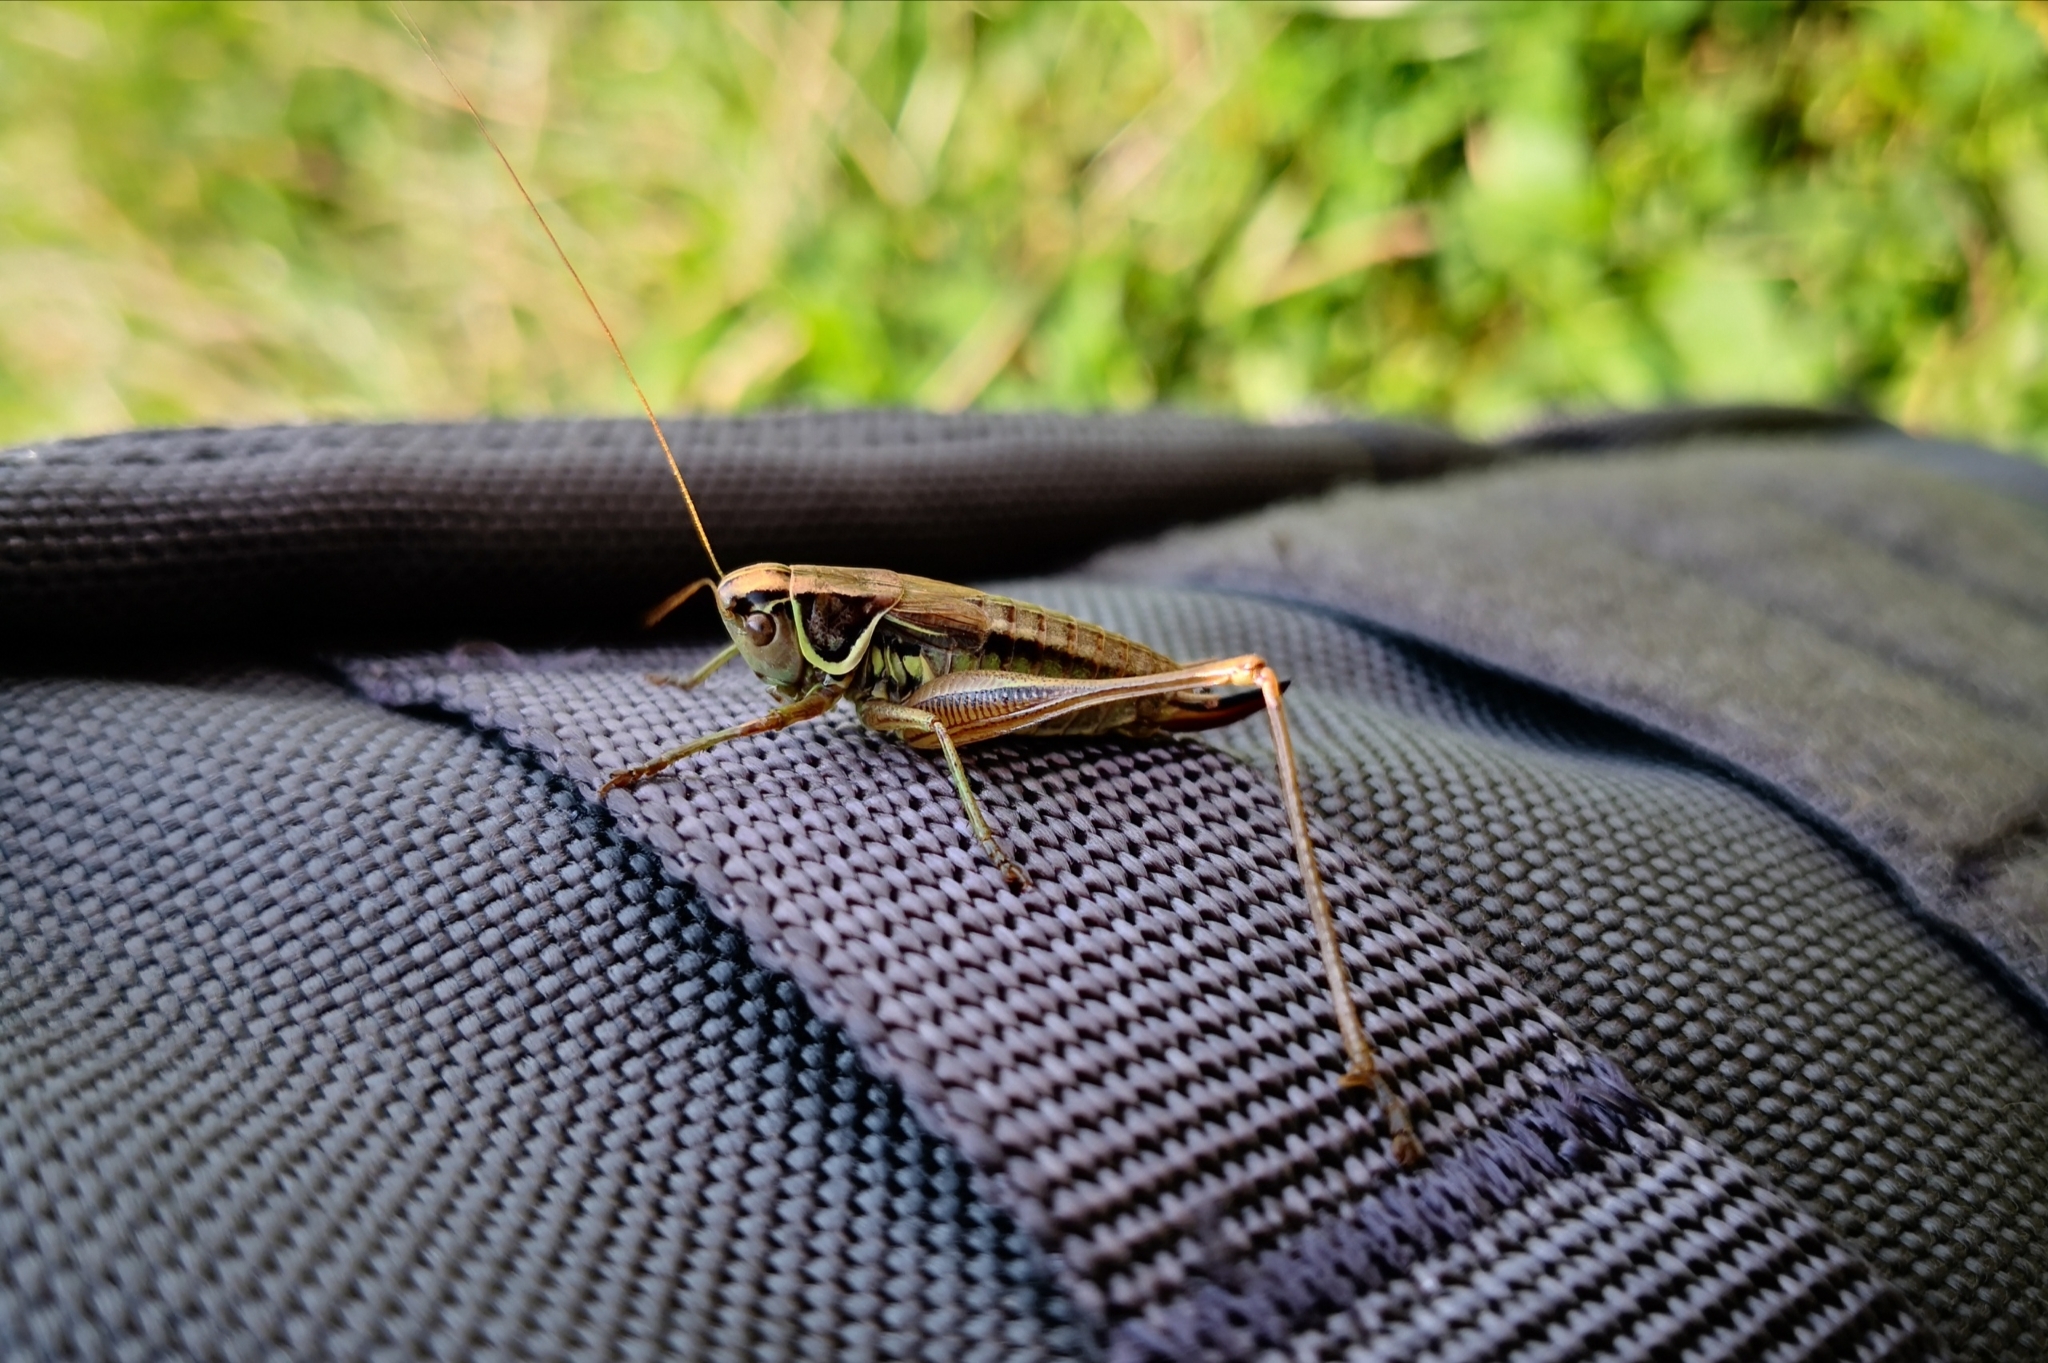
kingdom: Animalia
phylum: Arthropoda
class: Insecta
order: Orthoptera
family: Tettigoniidae
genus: Roeseliana
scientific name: Roeseliana roeselii
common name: Roesel's bush cricket
